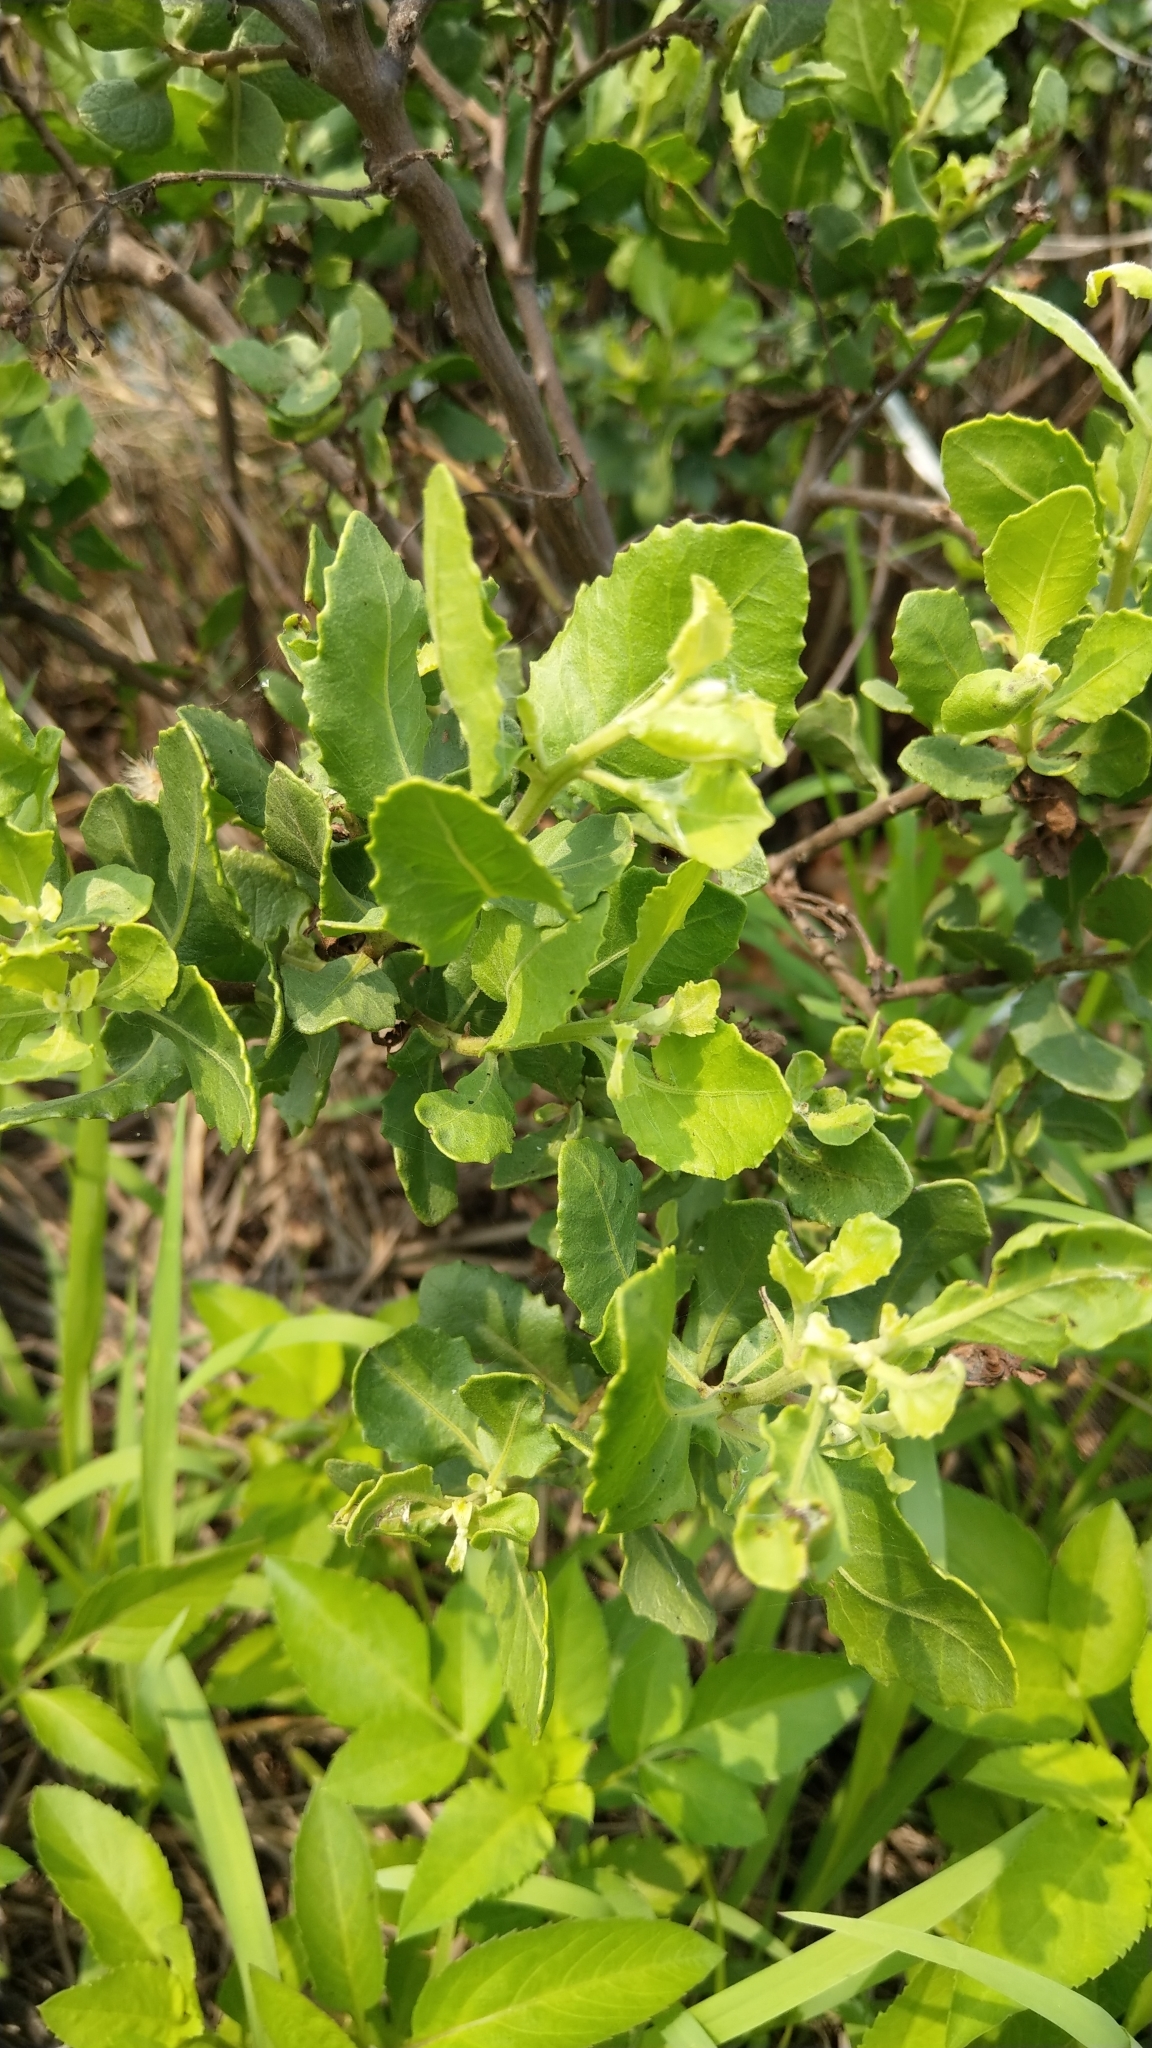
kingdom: Plantae
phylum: Tracheophyta
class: Magnoliopsida
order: Asterales
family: Asteraceae
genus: Pluchea
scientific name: Pluchea indica
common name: Indian fleabane
